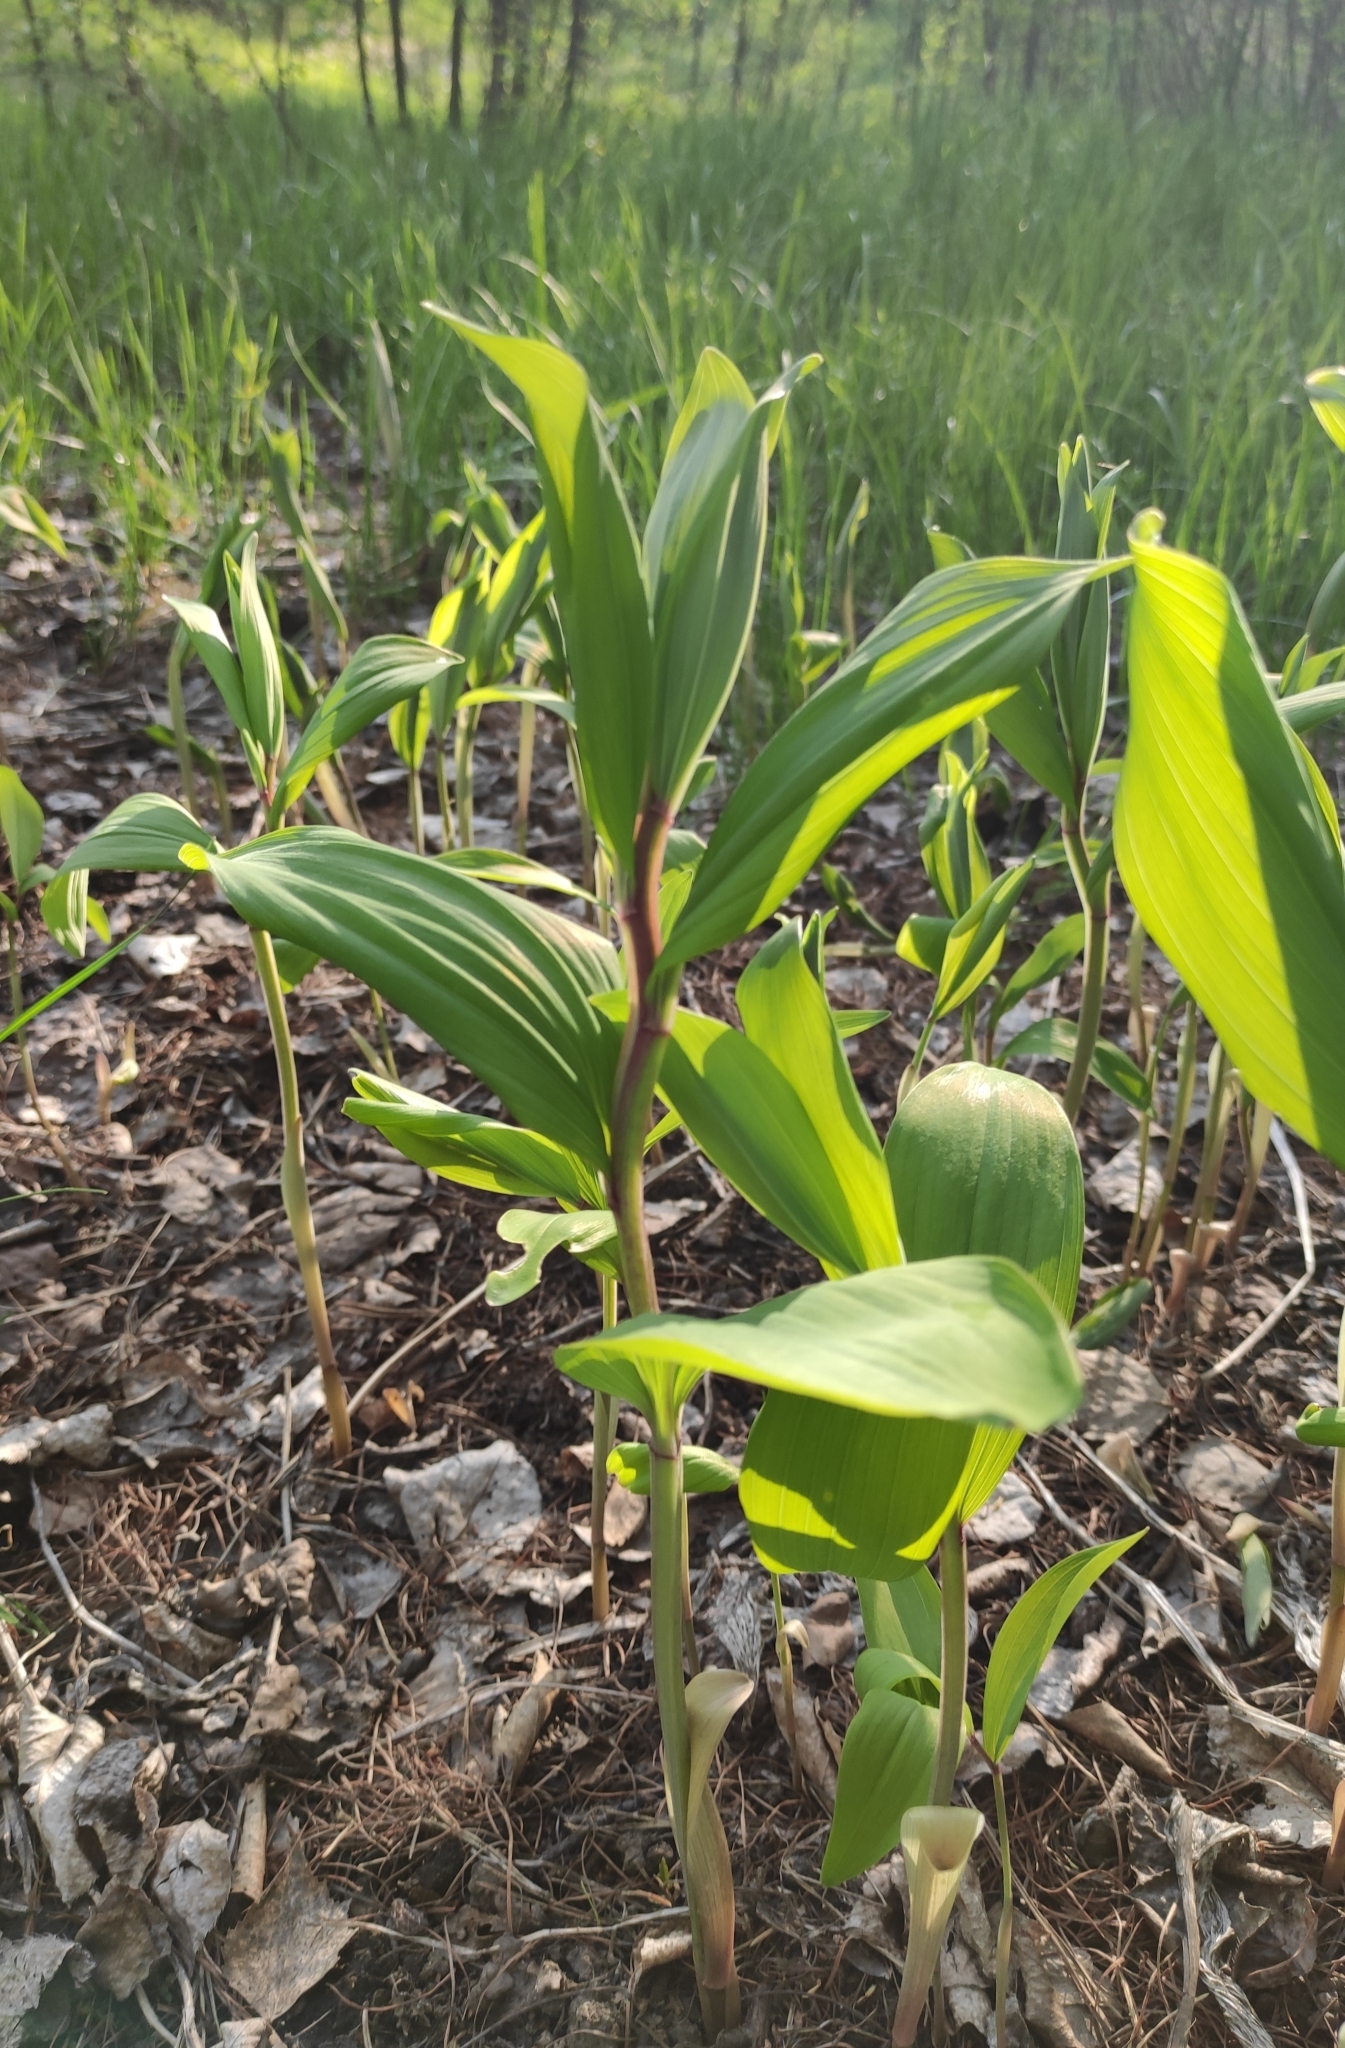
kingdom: Plantae
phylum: Tracheophyta
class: Liliopsida
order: Asparagales
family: Asparagaceae
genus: Polygonatum
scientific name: Polygonatum odoratum
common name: Angular solomon's-seal
